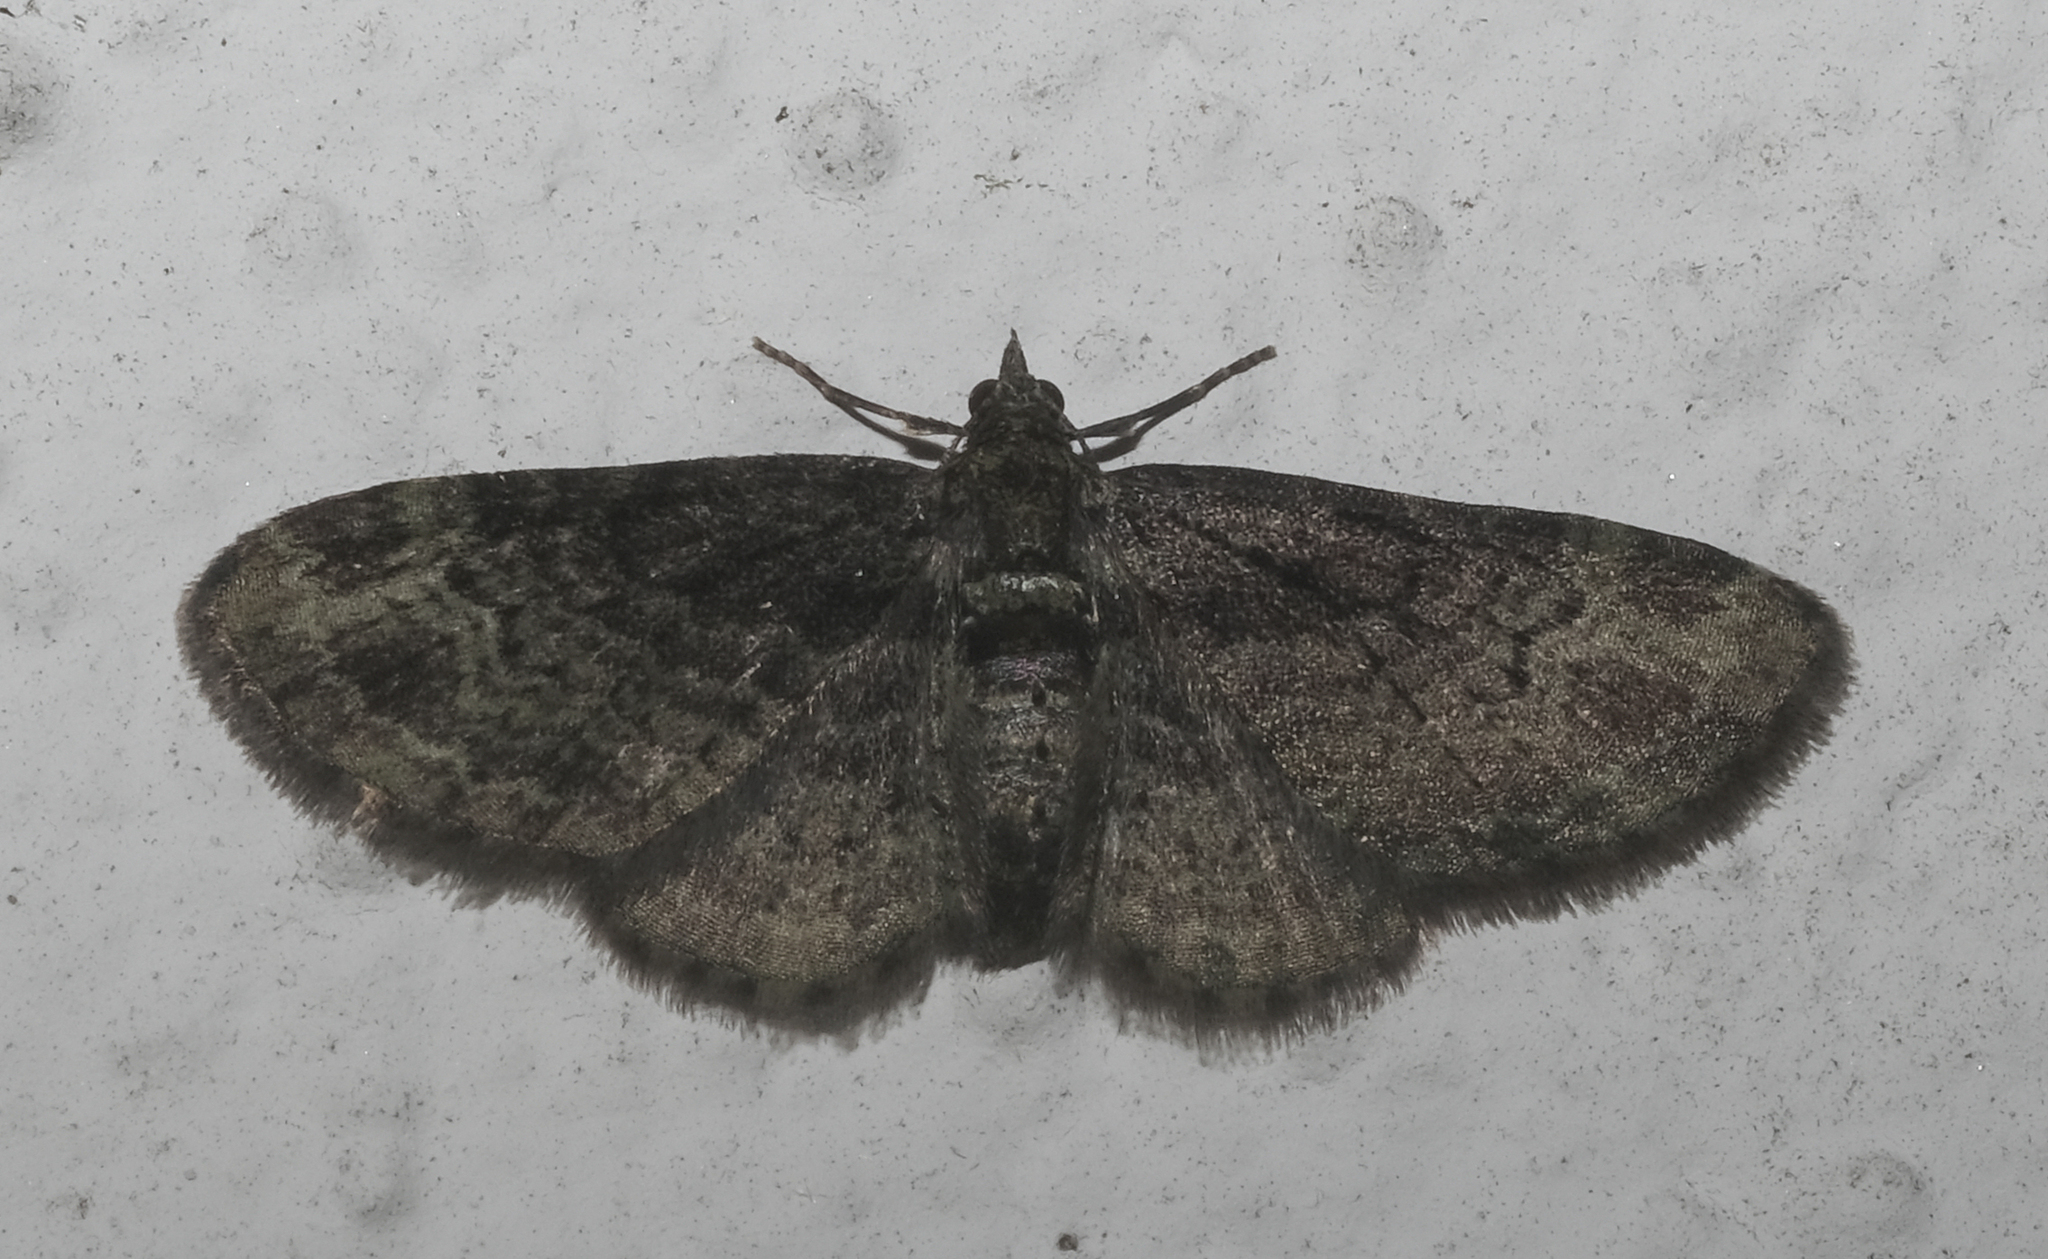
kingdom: Animalia
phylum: Arthropoda
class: Insecta
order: Lepidoptera
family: Geometridae
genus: Pasiphila
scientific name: Pasiphila rectangulata
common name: Green pug
